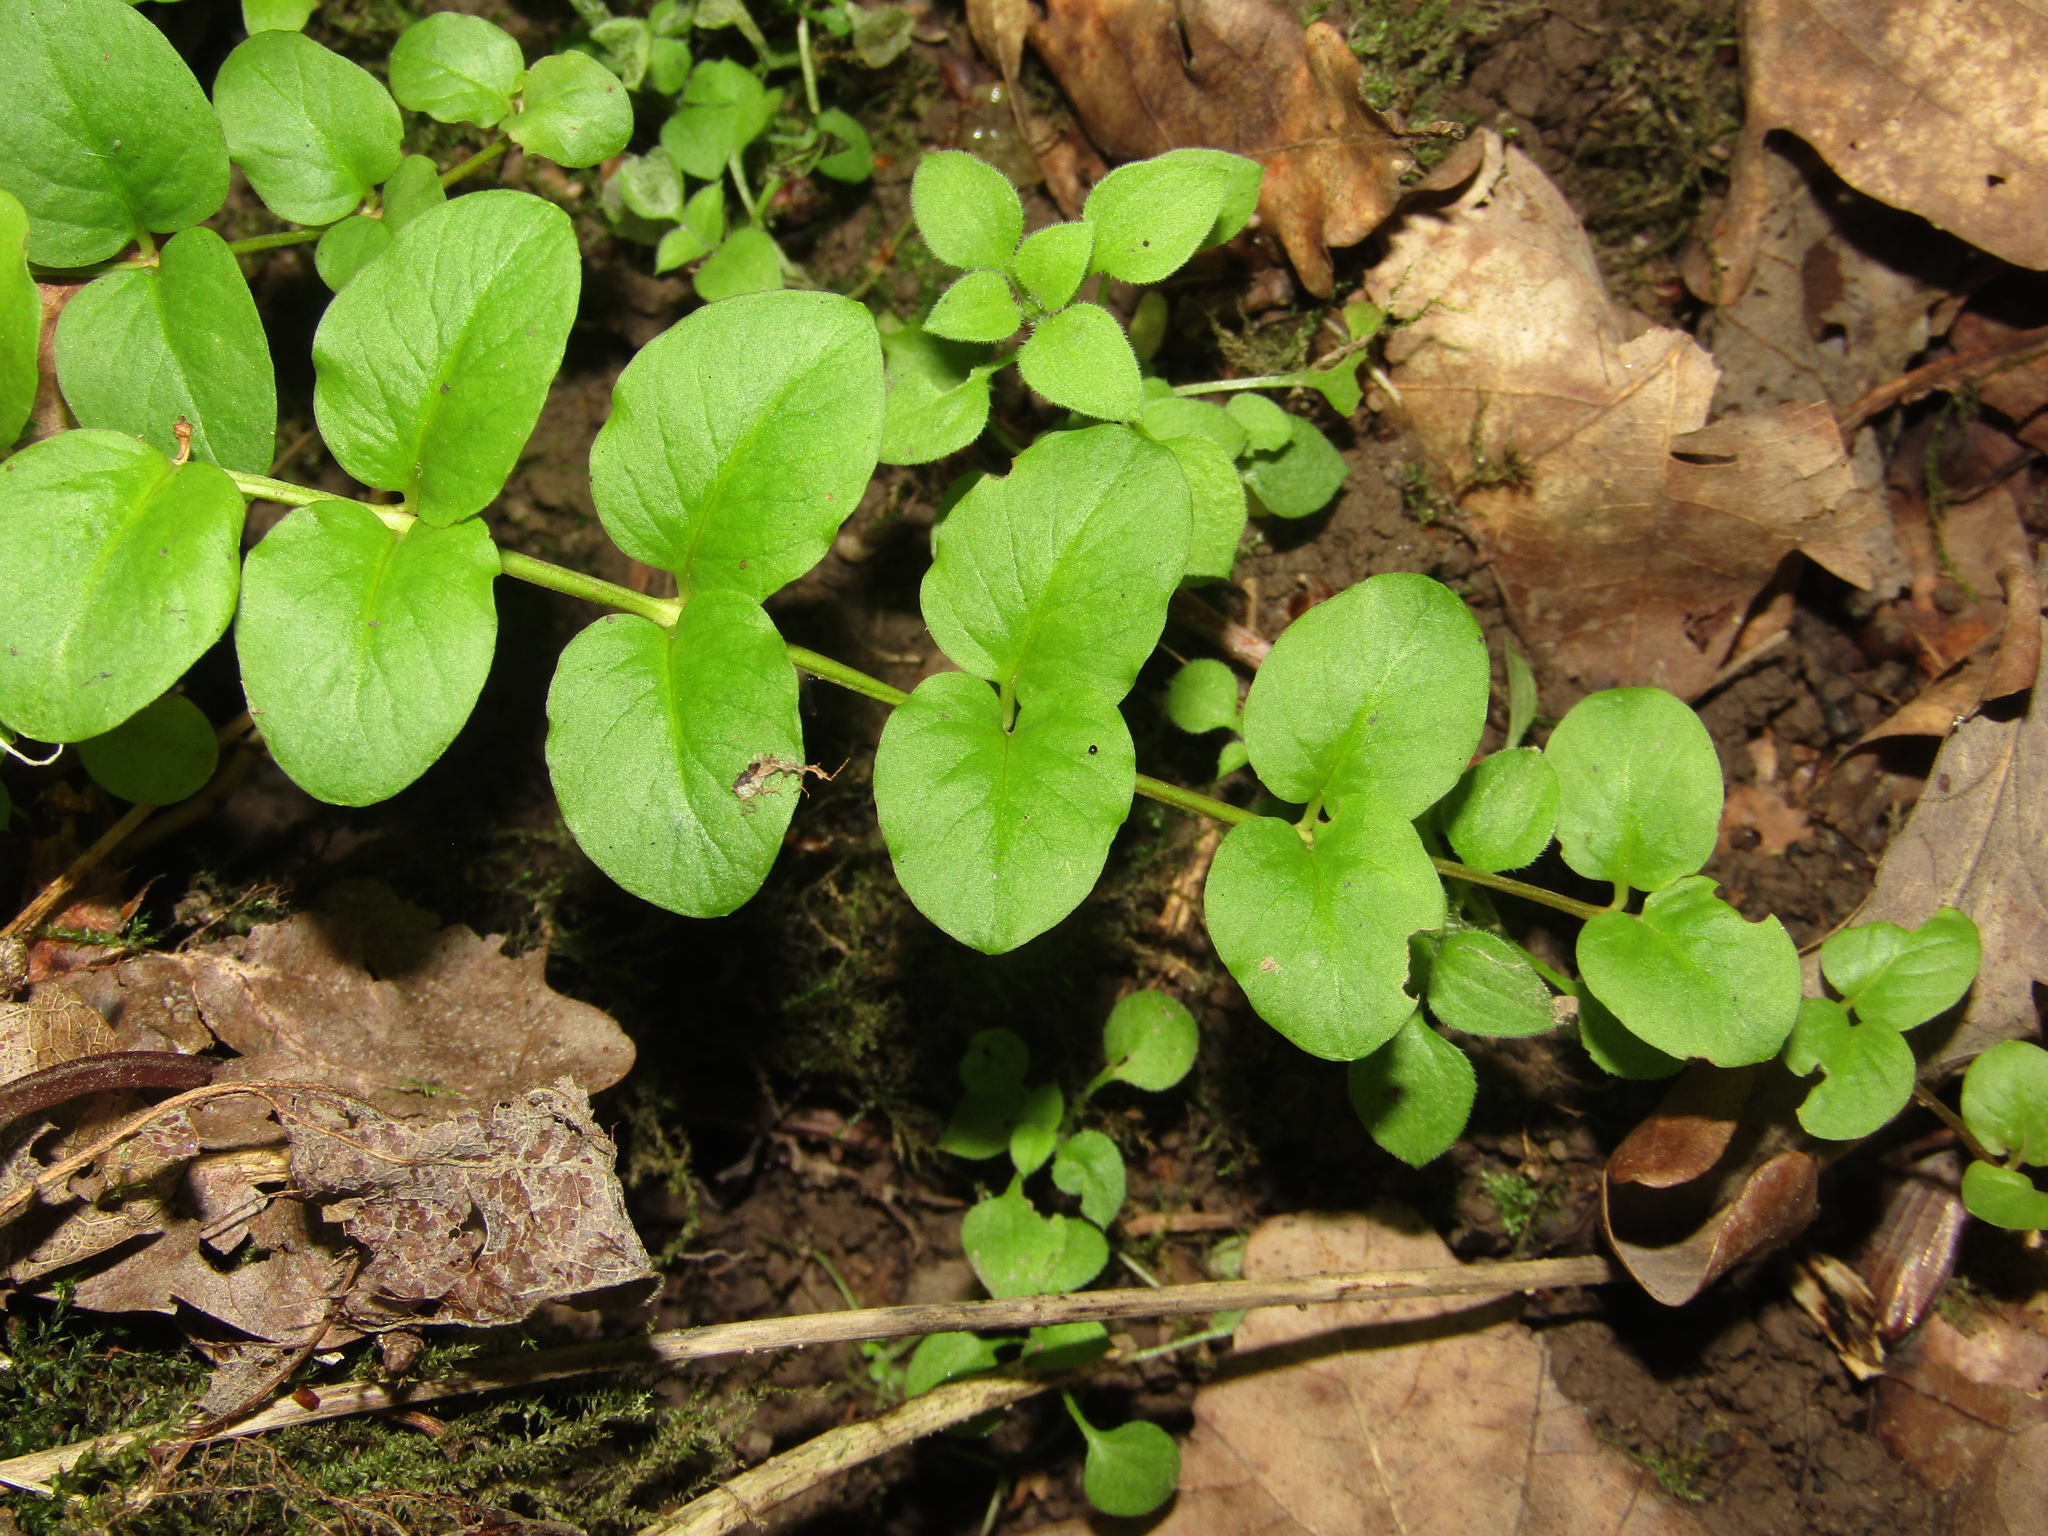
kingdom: Plantae
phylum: Tracheophyta
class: Magnoliopsida
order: Ericales
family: Primulaceae
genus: Lysimachia
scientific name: Lysimachia nummularia
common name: Moneywort
